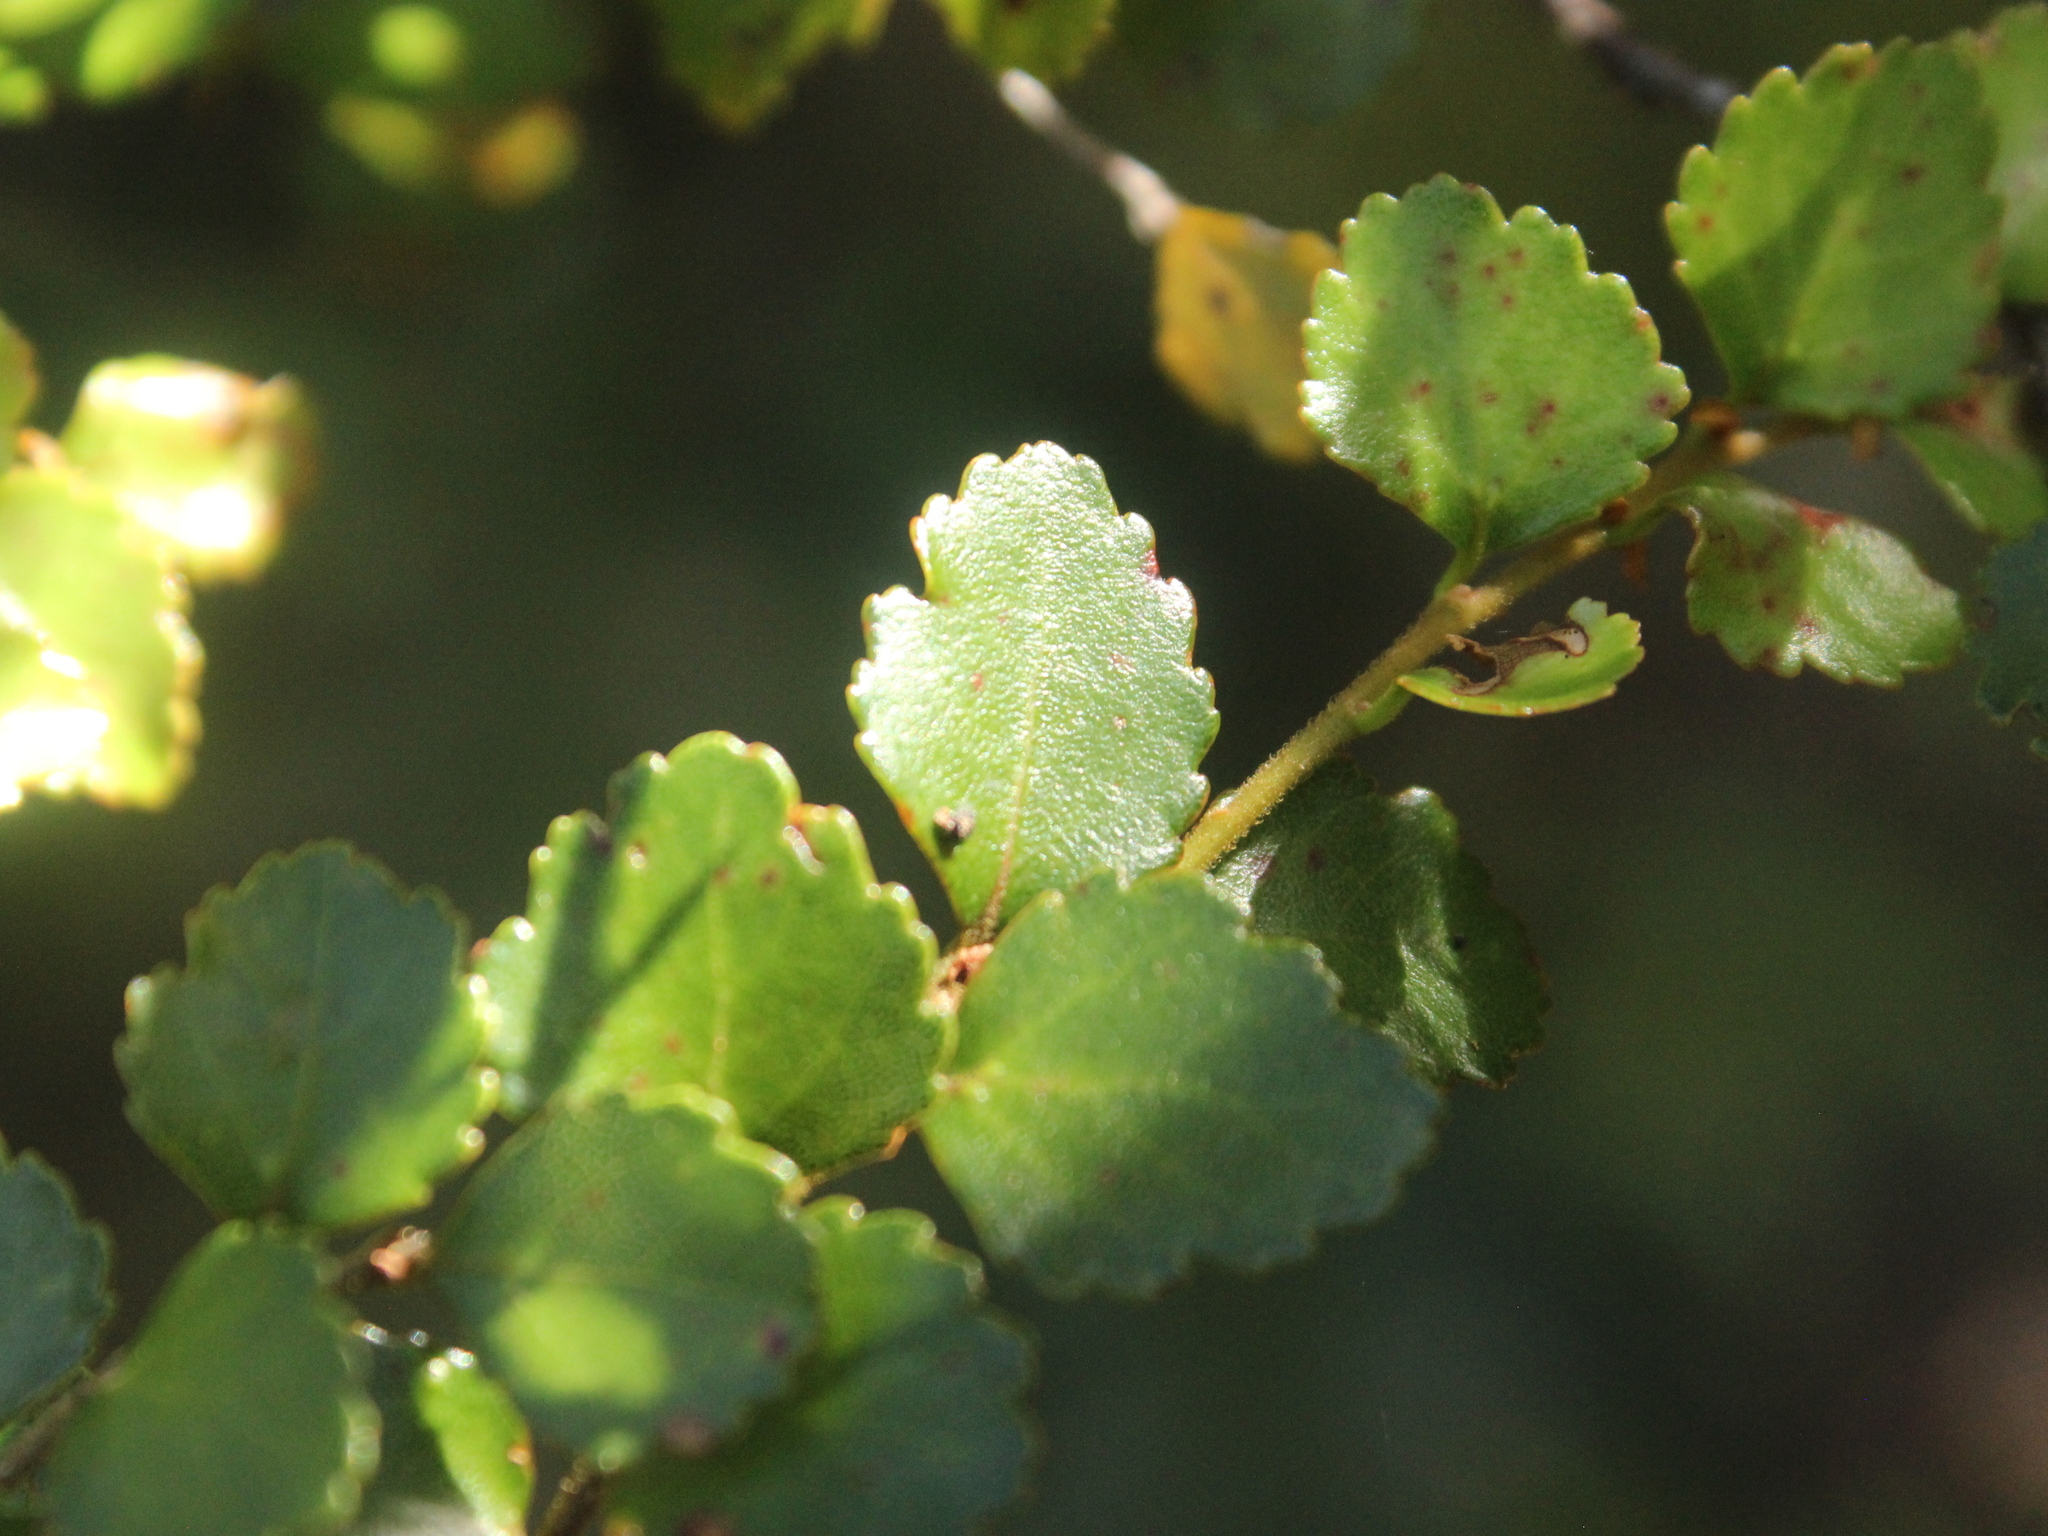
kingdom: Plantae
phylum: Tracheophyta
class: Magnoliopsida
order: Fagales
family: Nothofagaceae
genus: Nothofagus
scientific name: Nothofagus menziesii
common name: Silver beech
